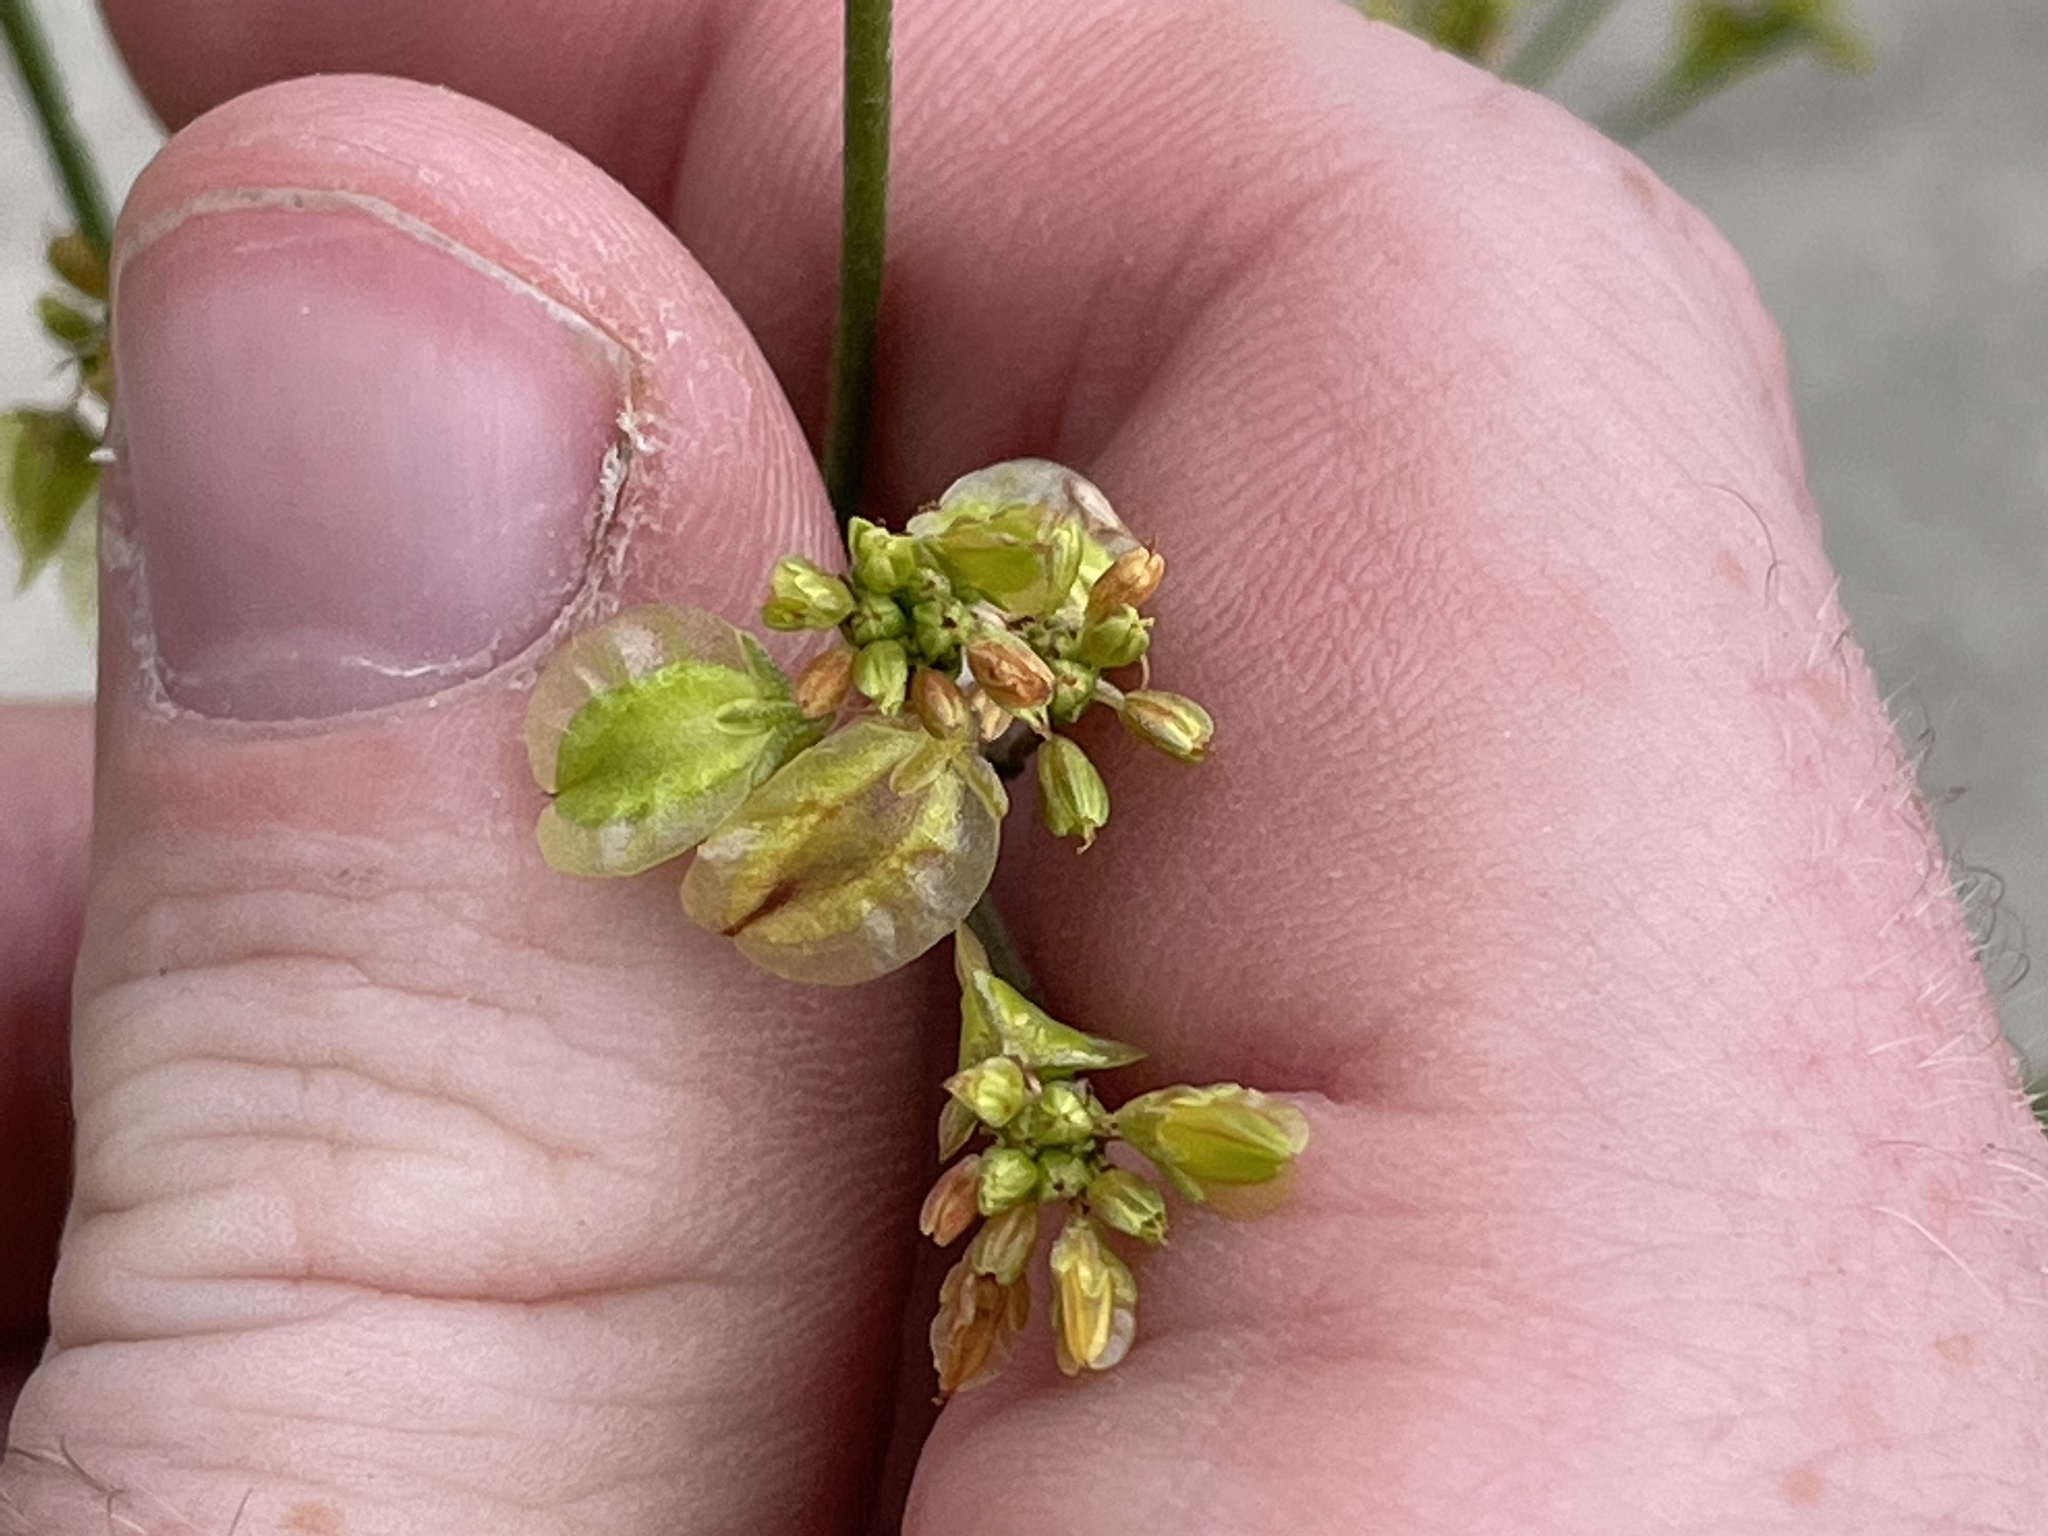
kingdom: Plantae
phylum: Tracheophyta
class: Magnoliopsida
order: Caryophyllales
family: Polygonaceae
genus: Eriogonum
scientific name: Eriogonum alatum
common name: Winged eriogonum
